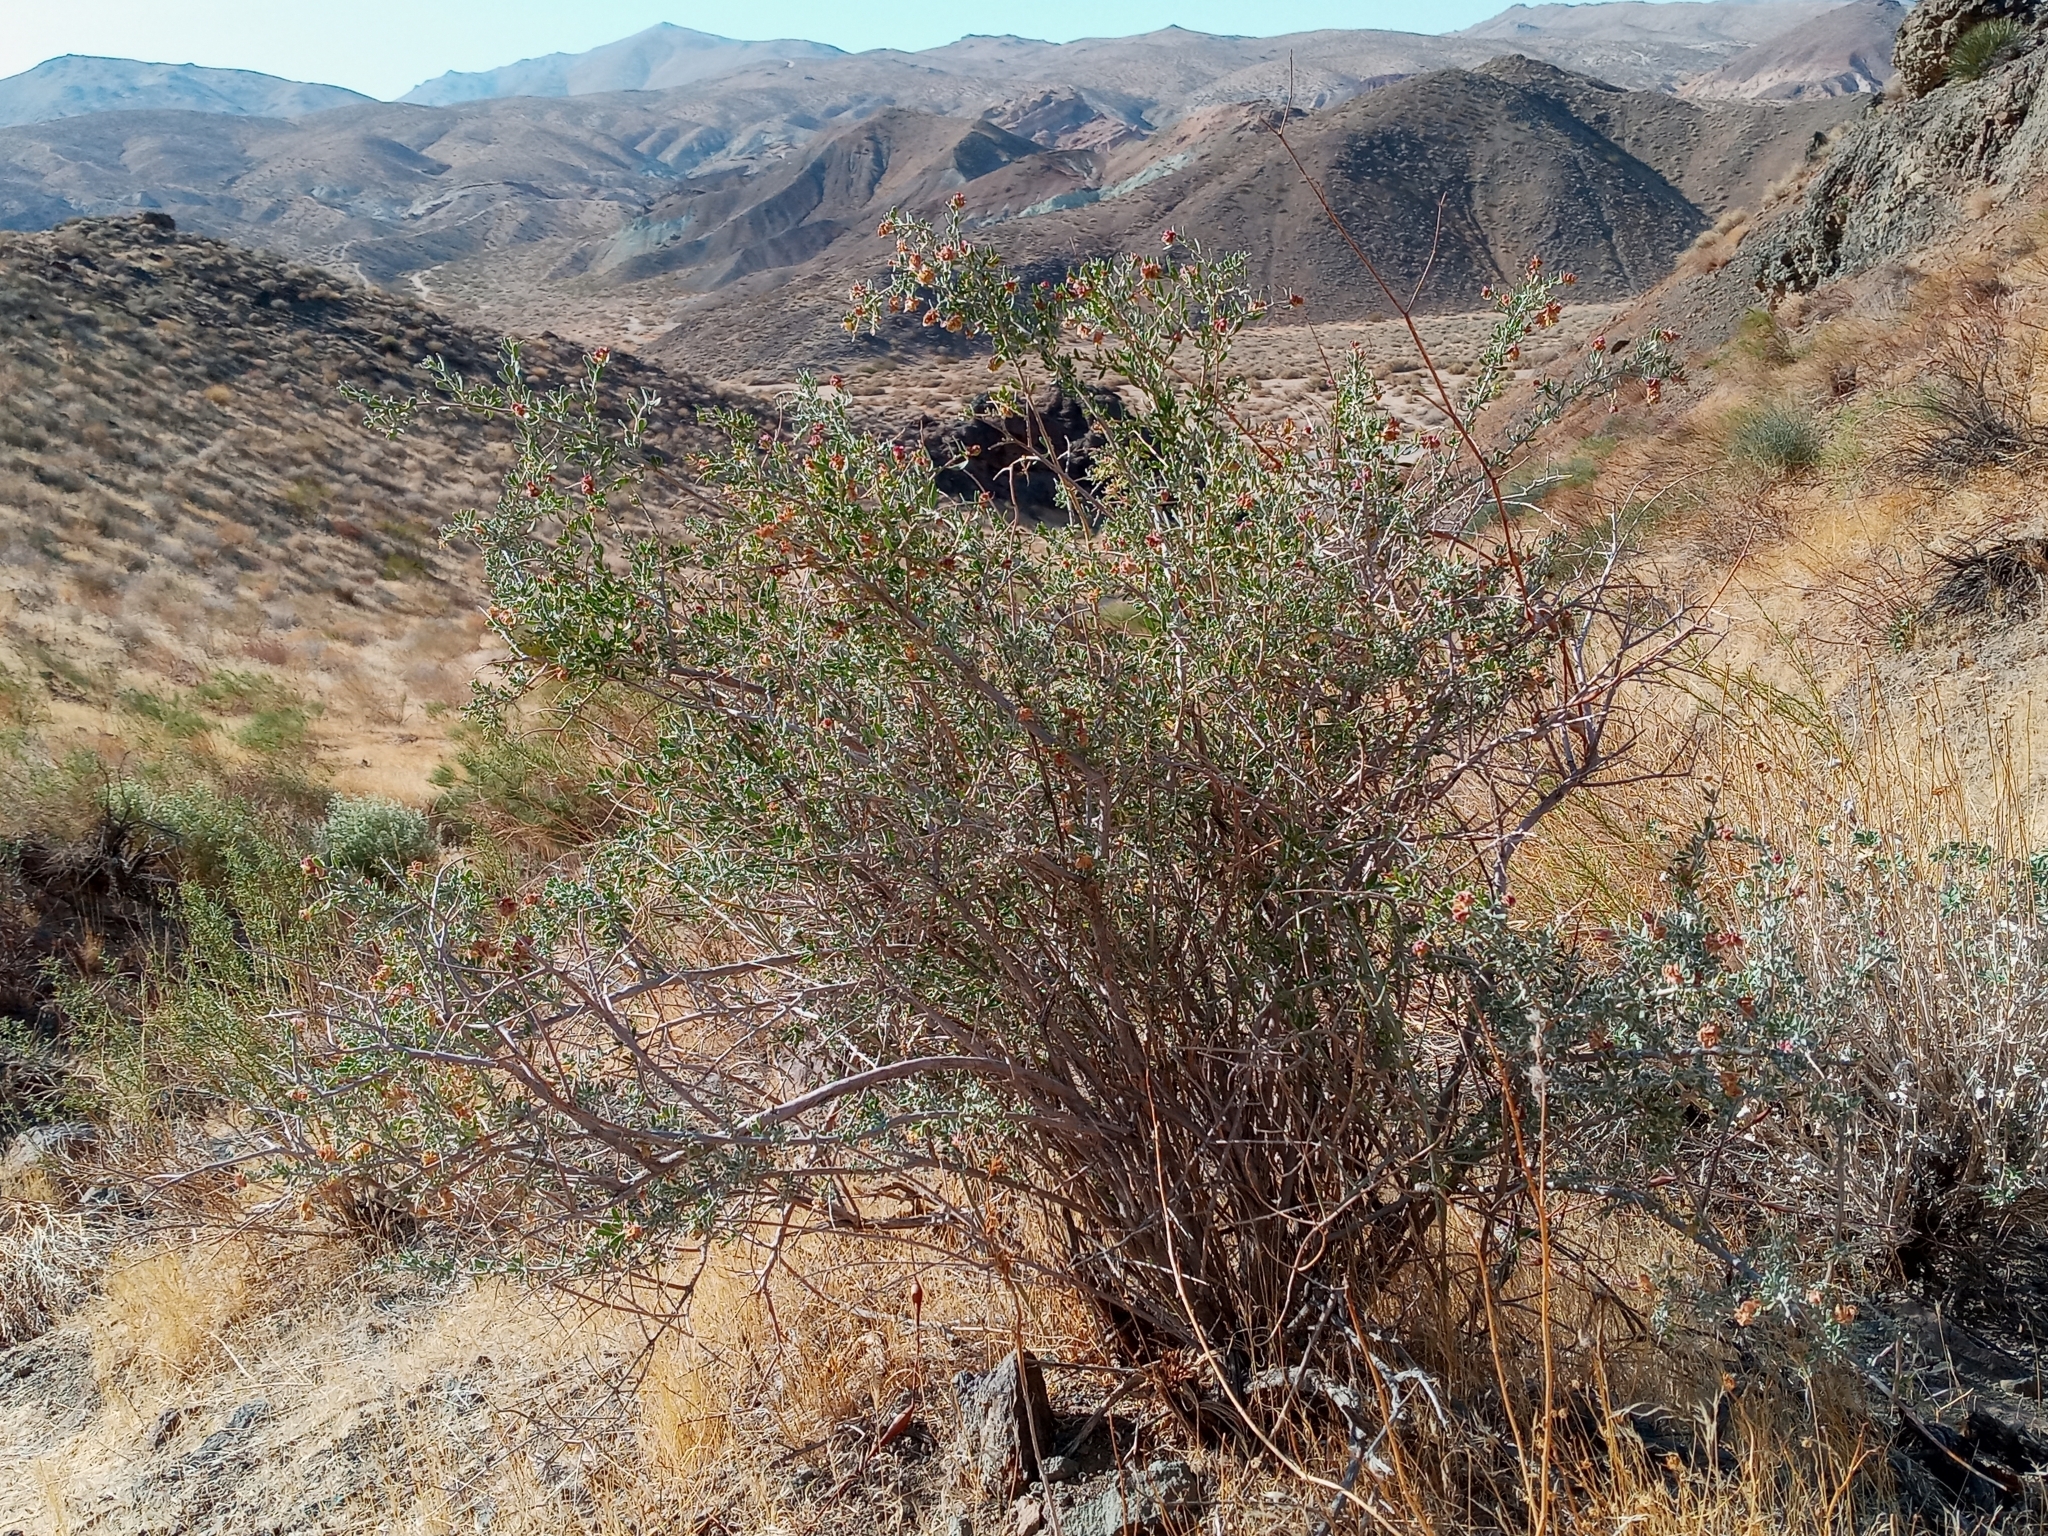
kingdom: Plantae
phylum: Tracheophyta
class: Magnoliopsida
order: Caryophyllales
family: Amaranthaceae
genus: Grayia
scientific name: Grayia spinosa
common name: Spiny hopsage
